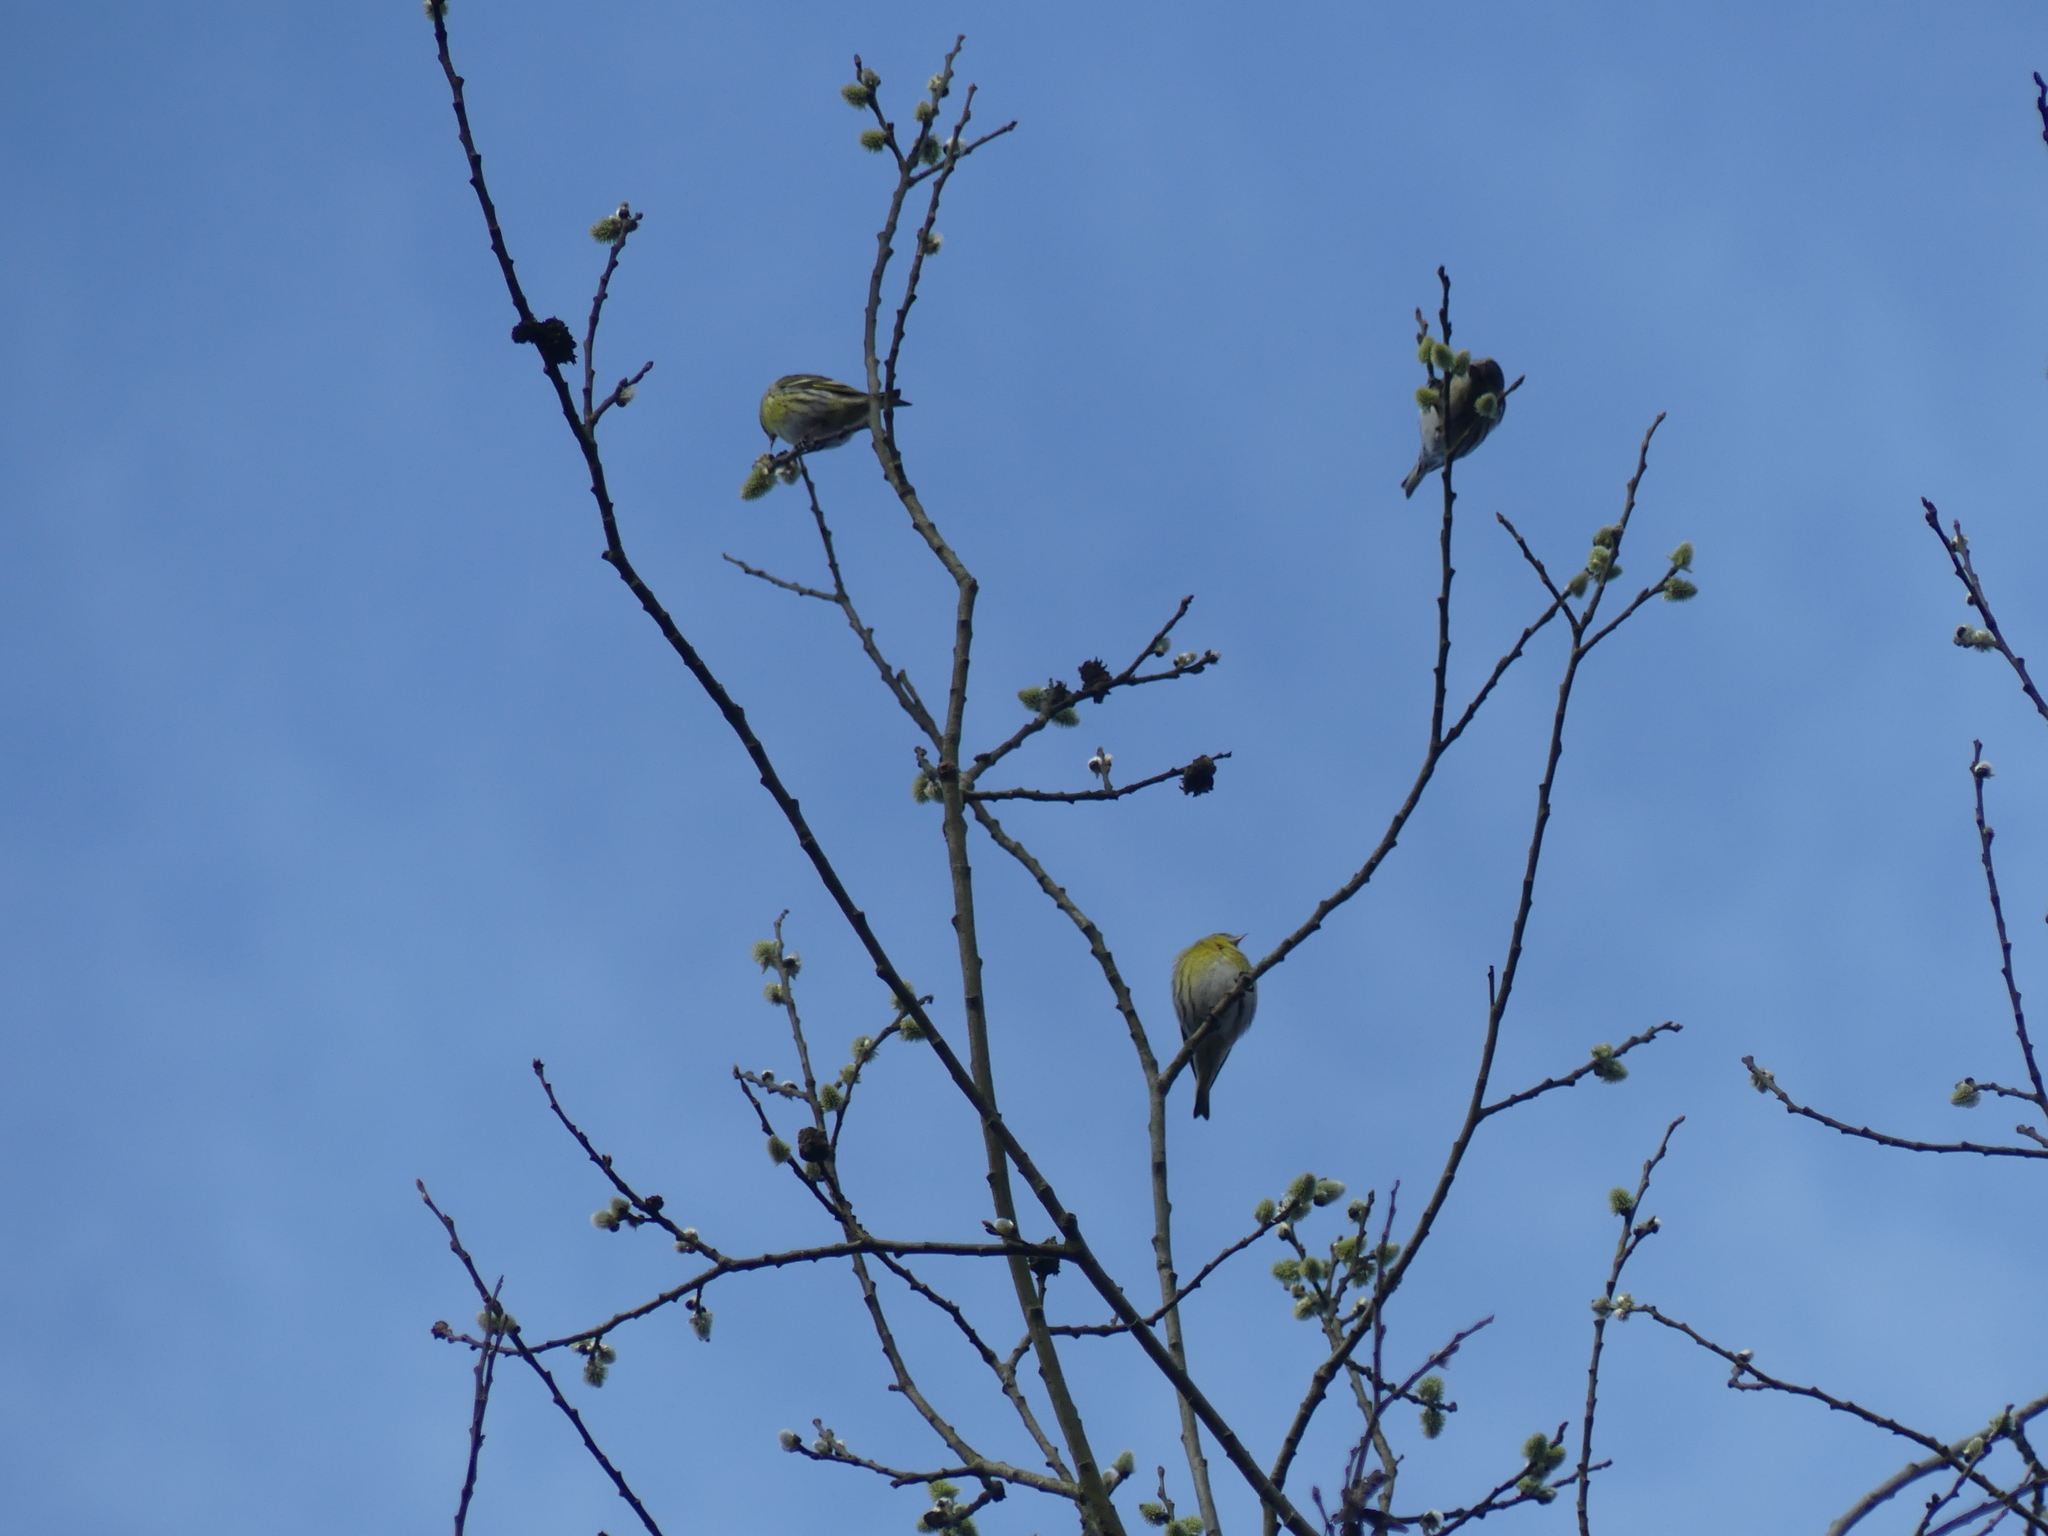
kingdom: Animalia
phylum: Chordata
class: Aves
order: Passeriformes
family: Fringillidae
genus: Spinus
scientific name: Spinus spinus
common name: Eurasian siskin
